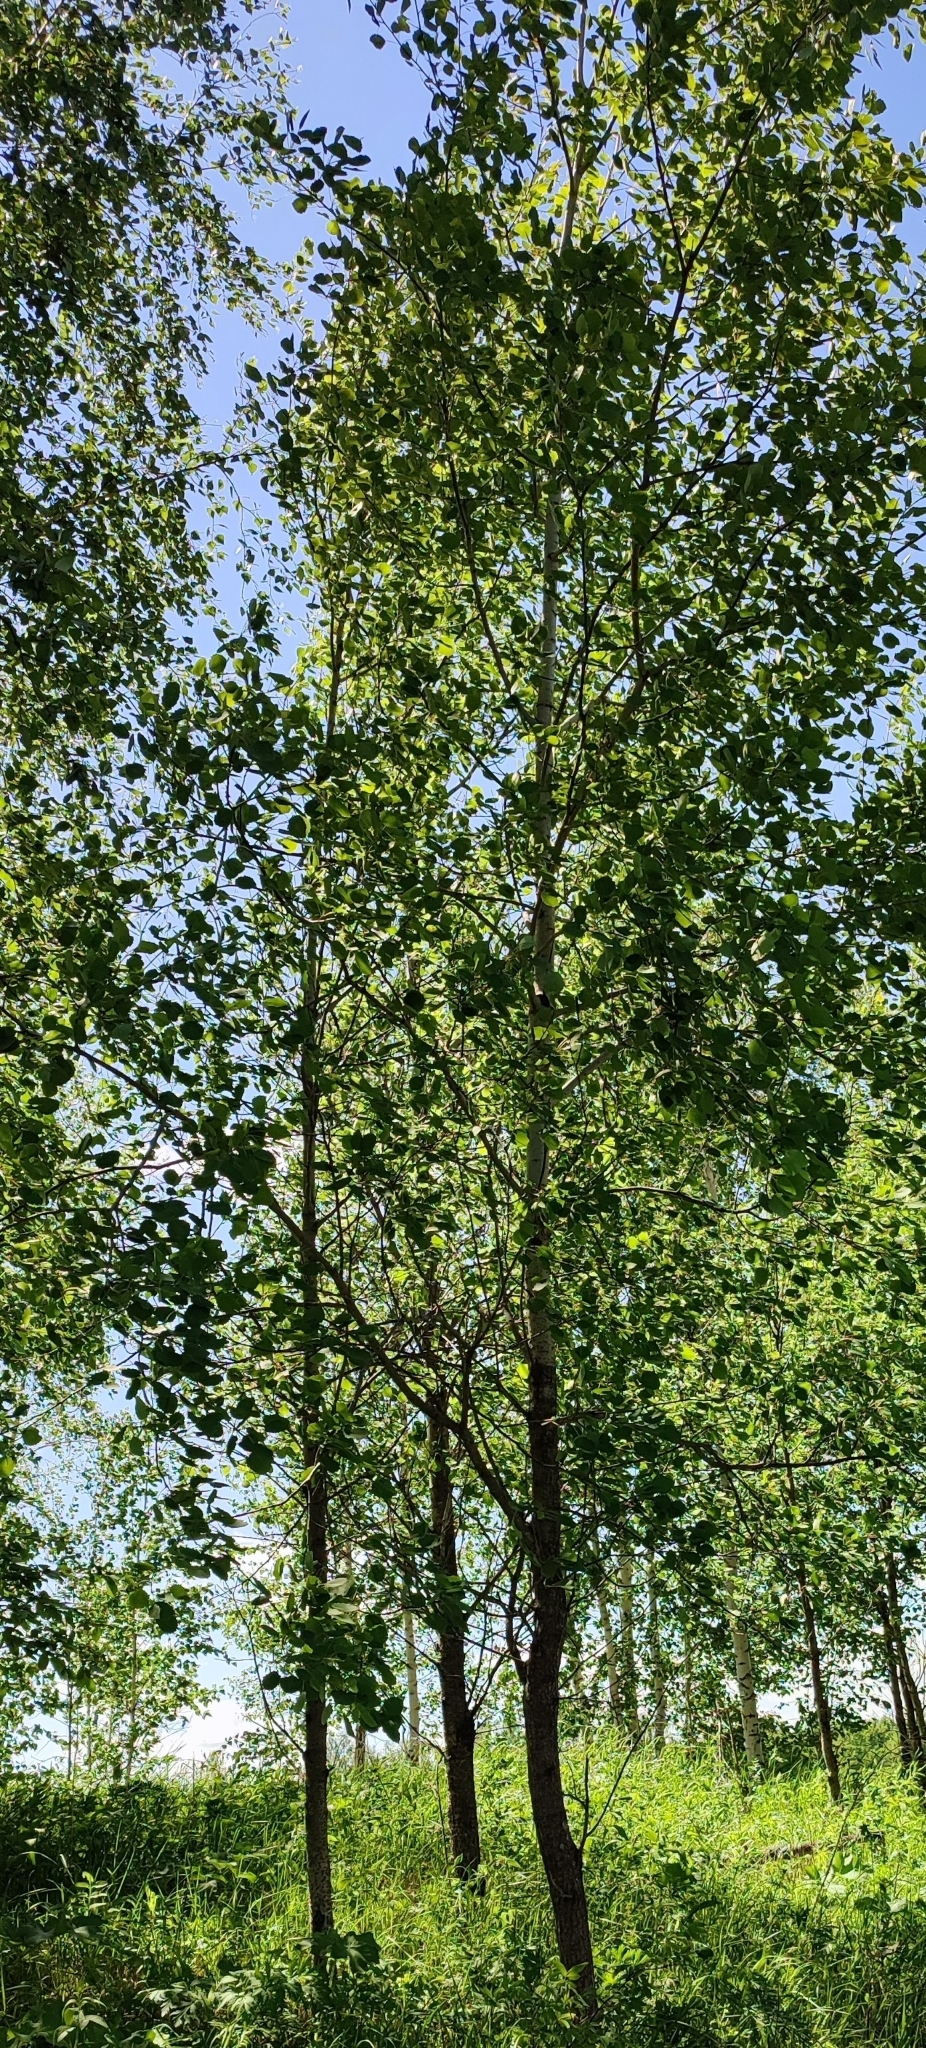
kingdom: Plantae
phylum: Tracheophyta
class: Magnoliopsida
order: Malpighiales
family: Salicaceae
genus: Populus
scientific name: Populus tremula
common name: European aspen
